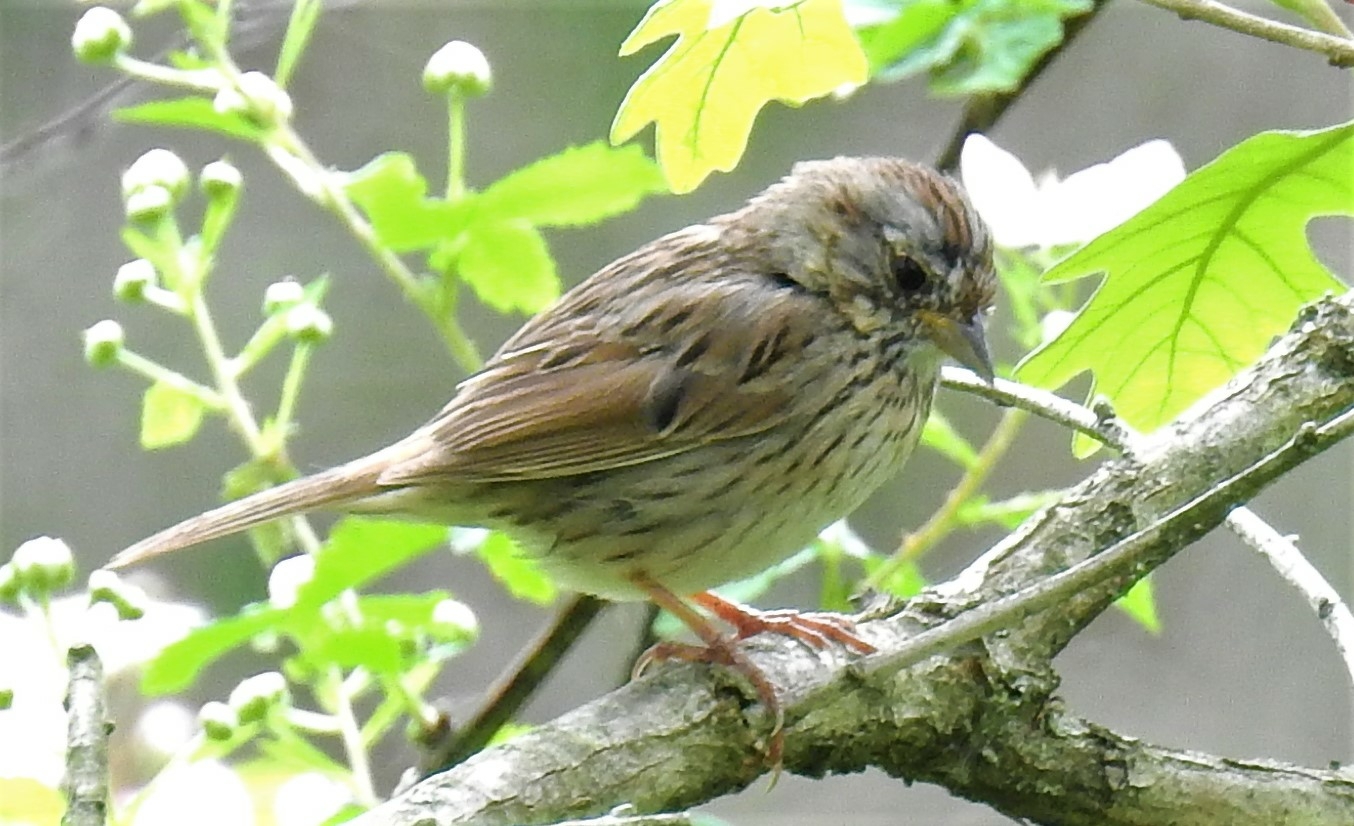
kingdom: Animalia
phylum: Chordata
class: Aves
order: Passeriformes
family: Passerellidae
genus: Melospiza
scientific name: Melospiza lincolnii
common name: Lincoln's sparrow
